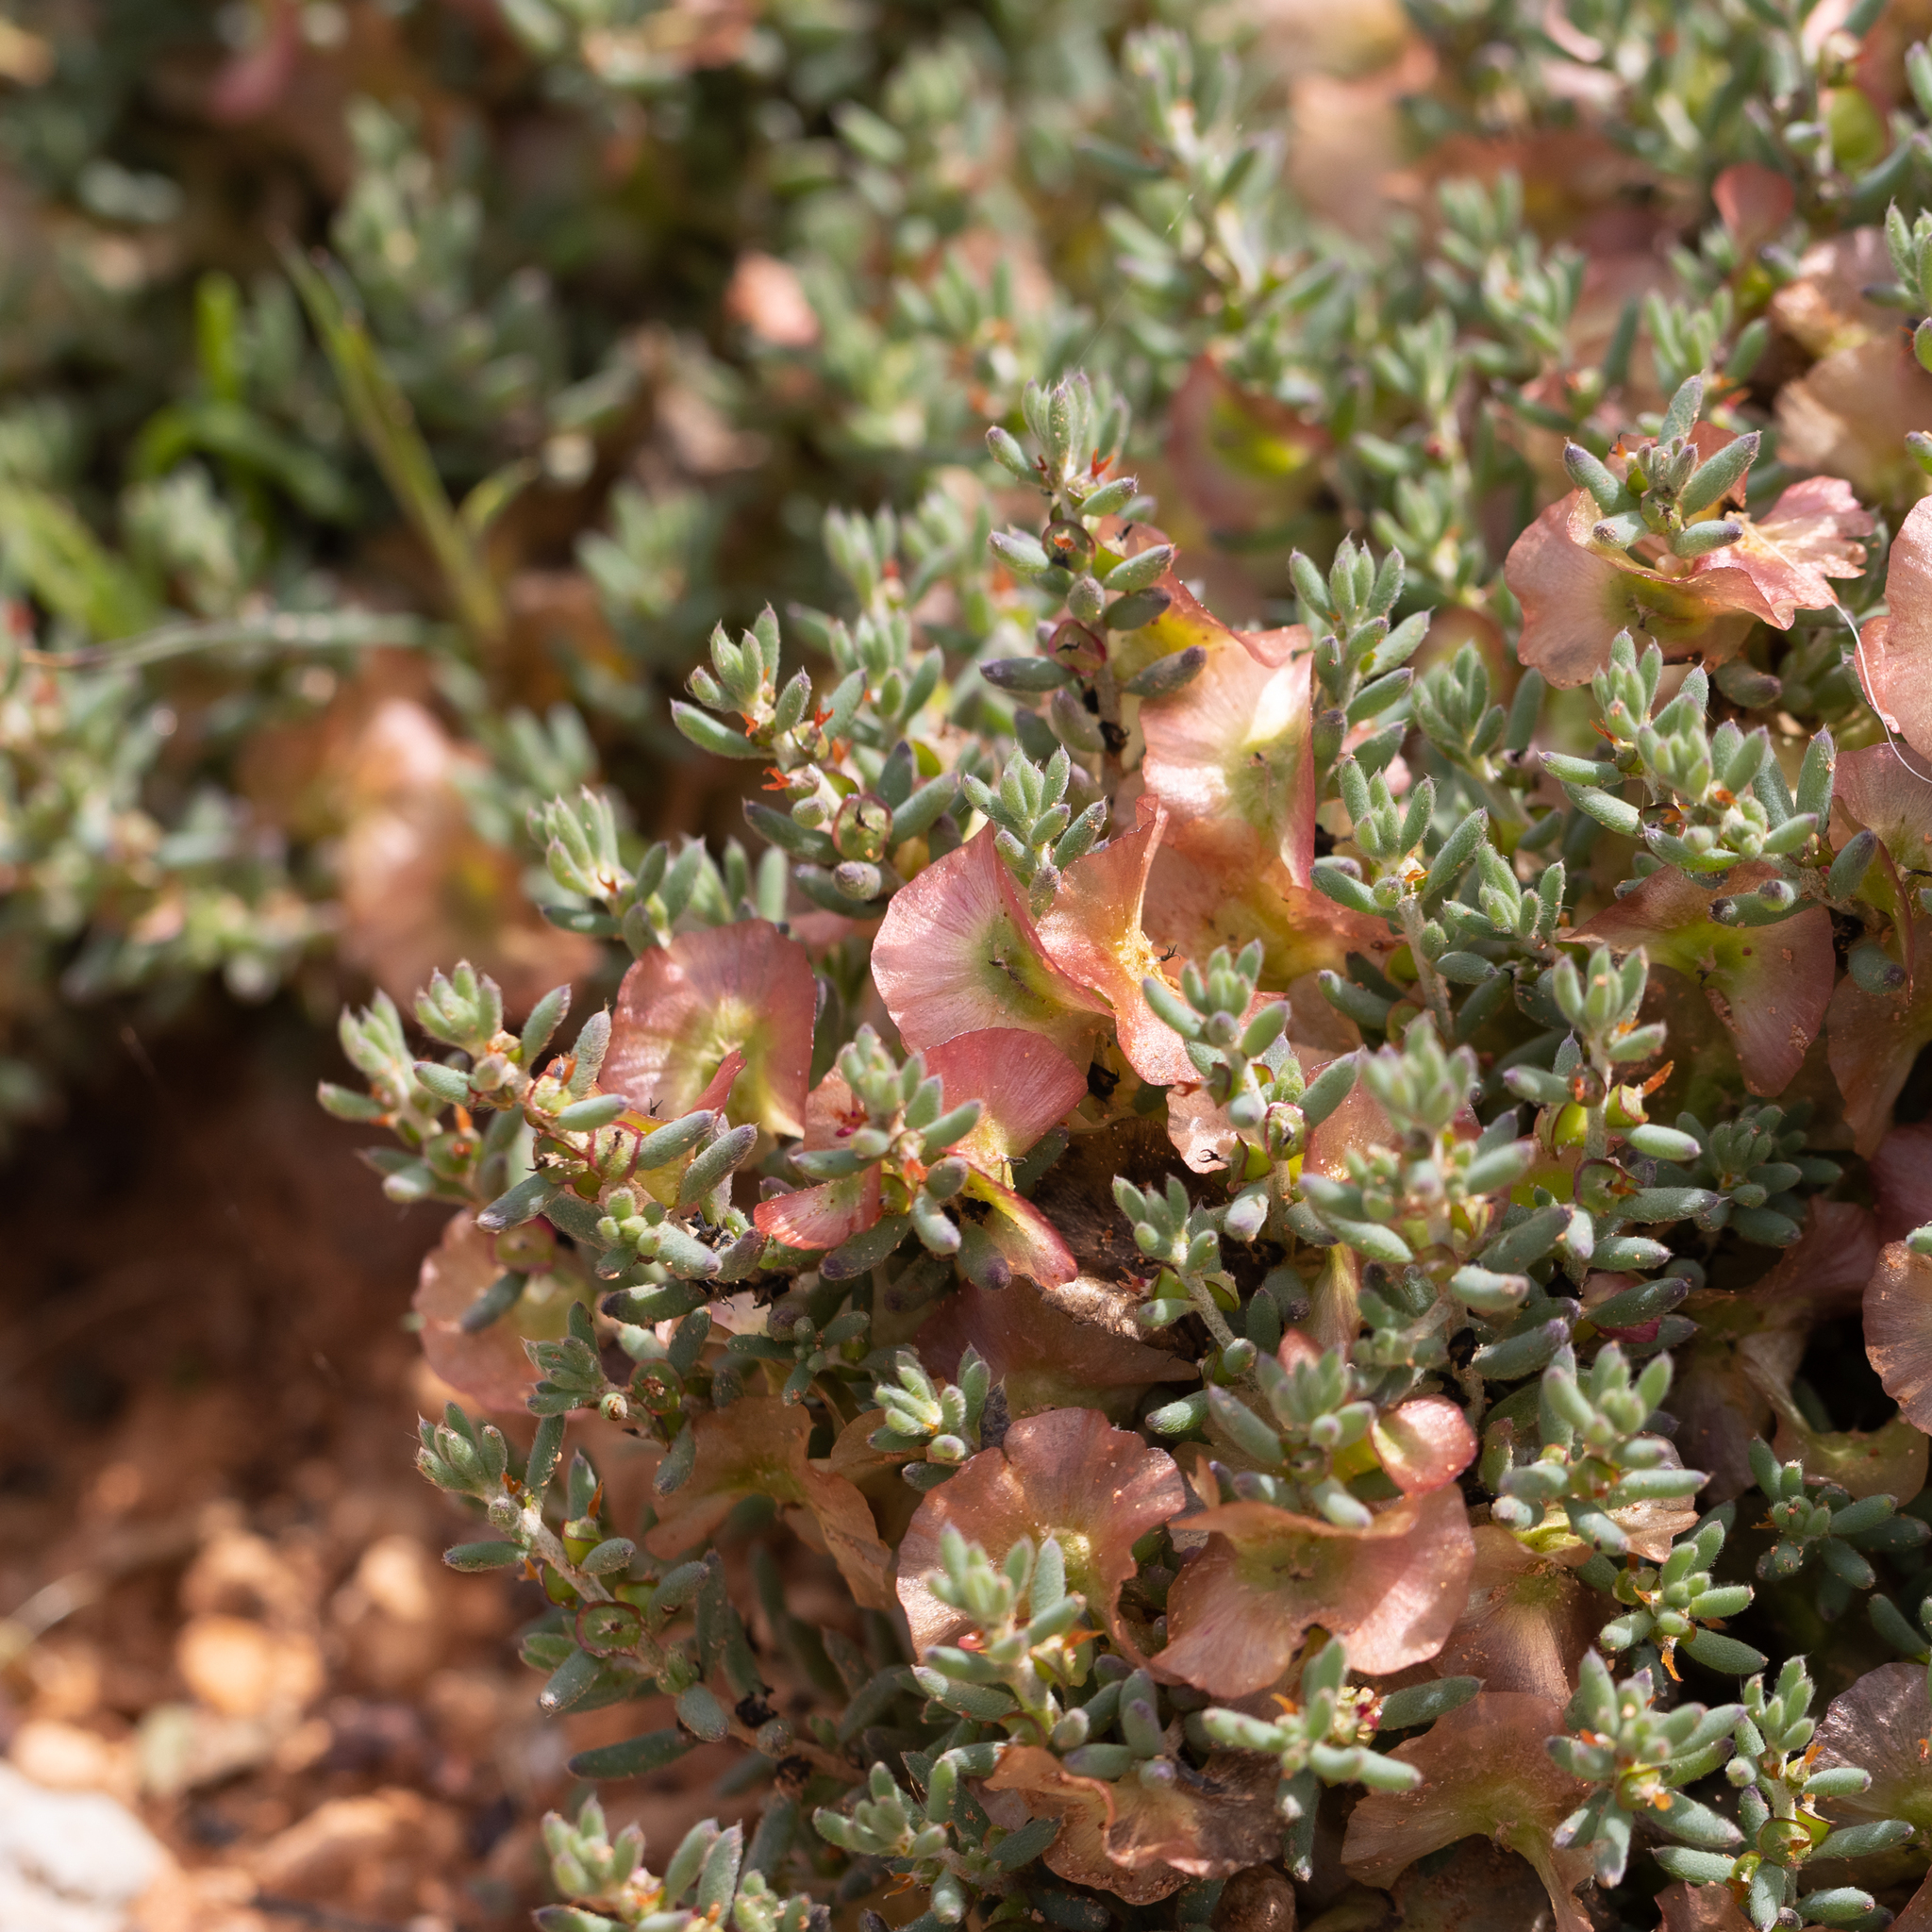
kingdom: Plantae
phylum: Tracheophyta
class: Magnoliopsida
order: Caryophyllales
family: Amaranthaceae
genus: Maireana
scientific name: Maireana turbinata
